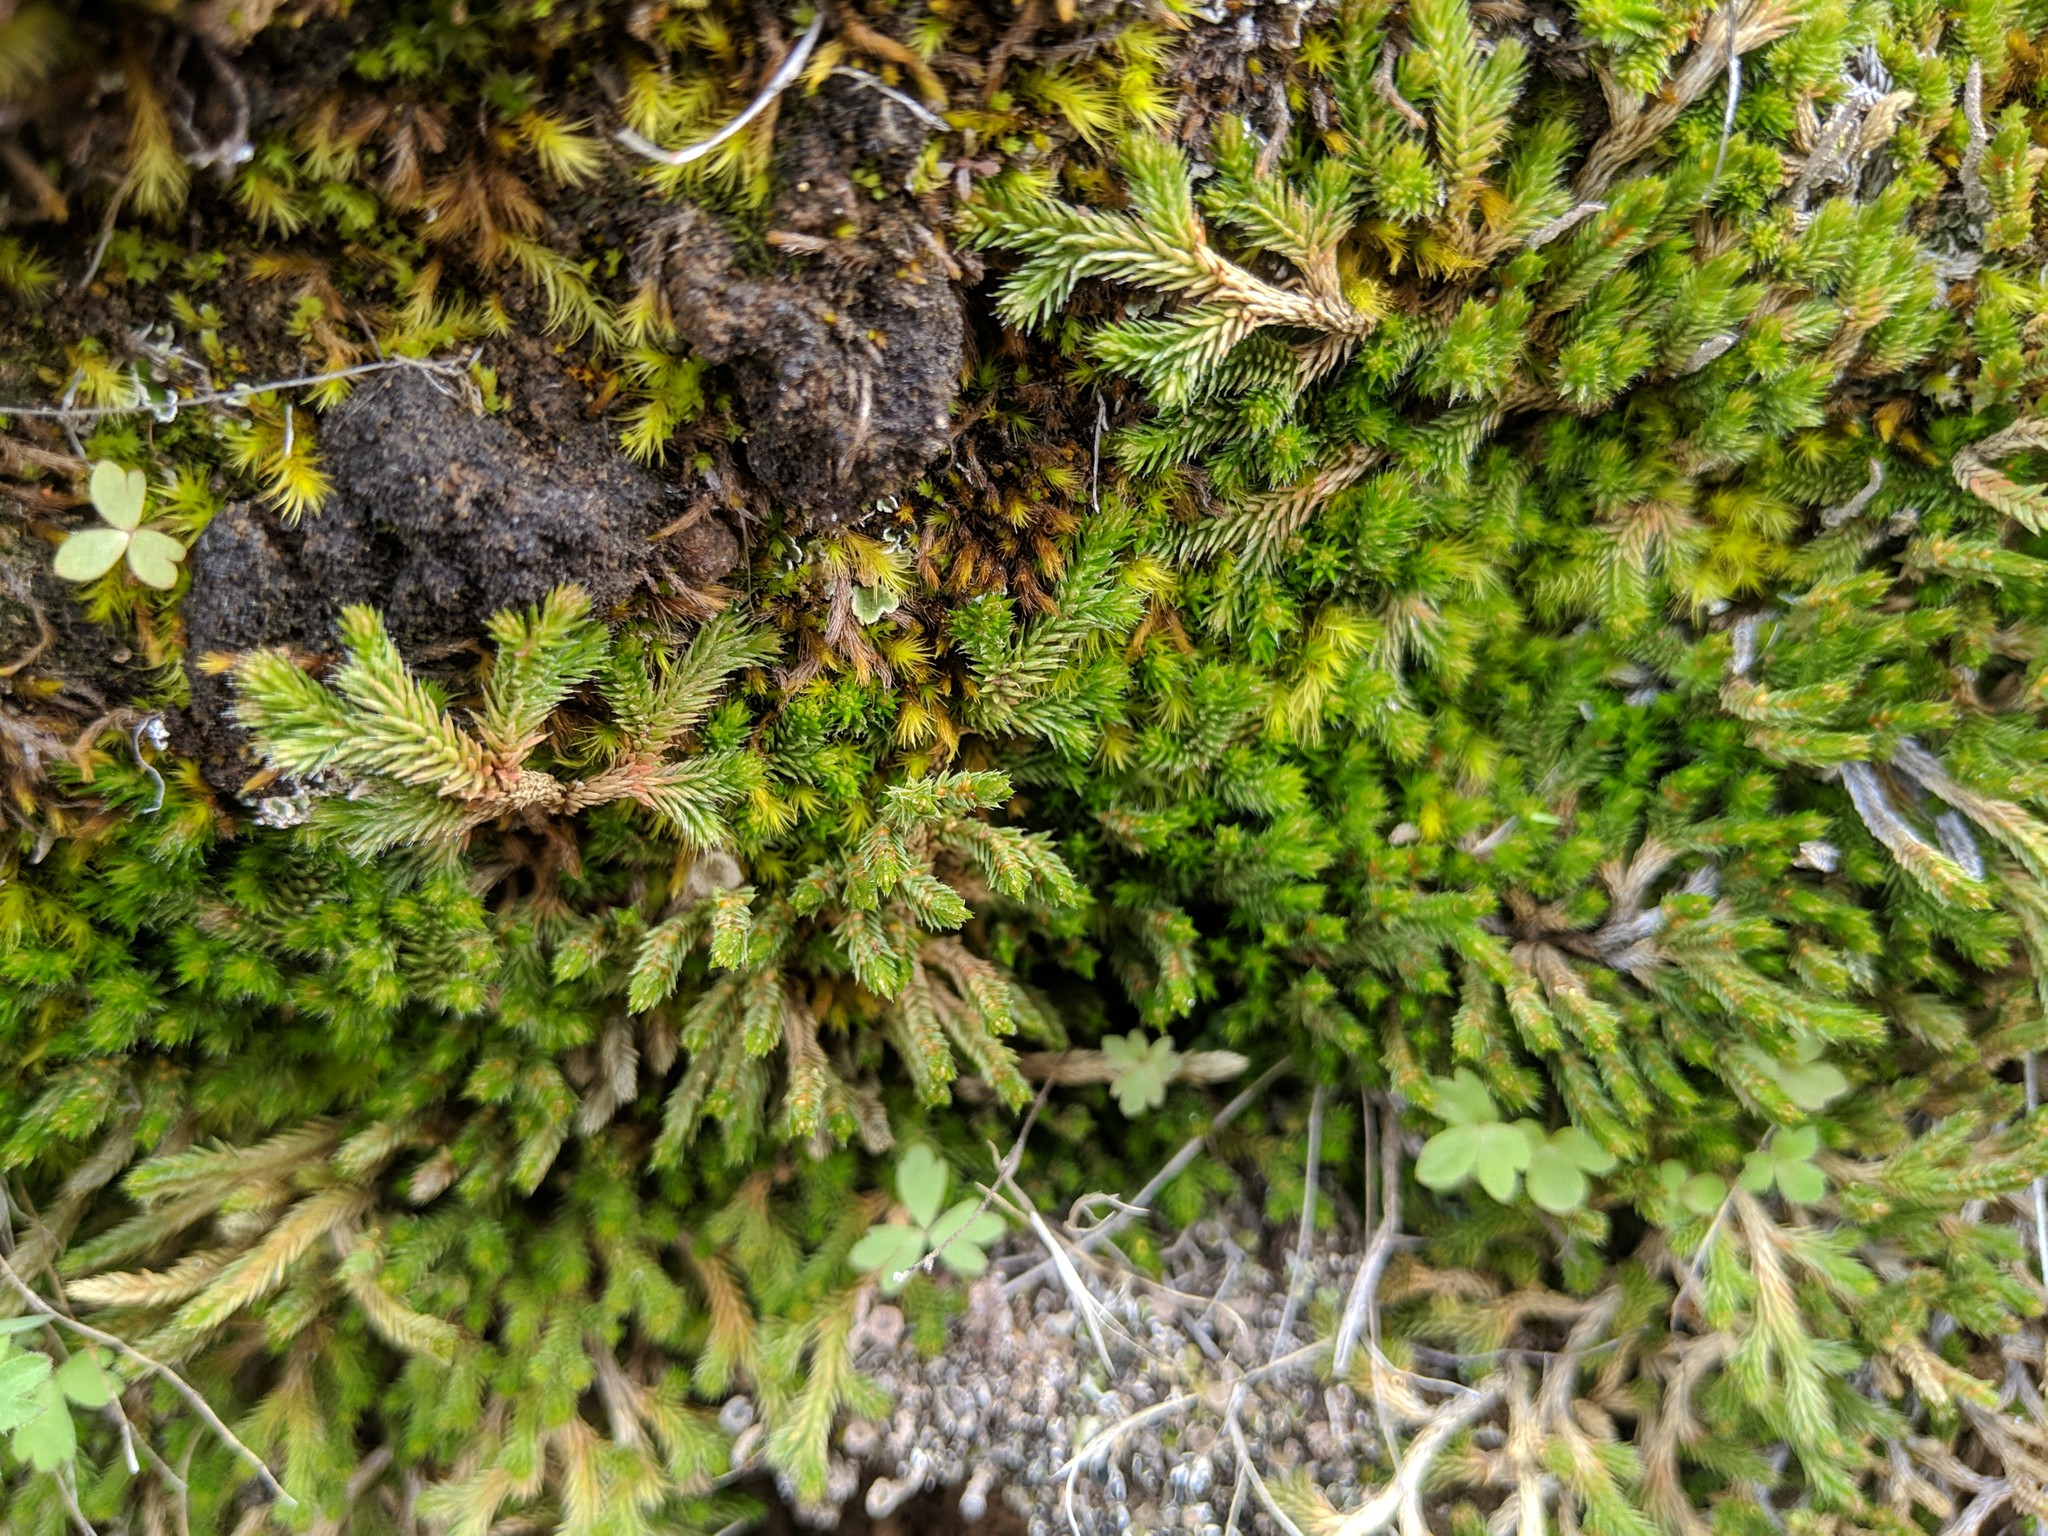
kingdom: Plantae
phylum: Tracheophyta
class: Lycopodiopsida
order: Selaginellales
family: Selaginellaceae
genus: Selaginella
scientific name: Selaginella wallacei
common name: Wallace's selaginella
